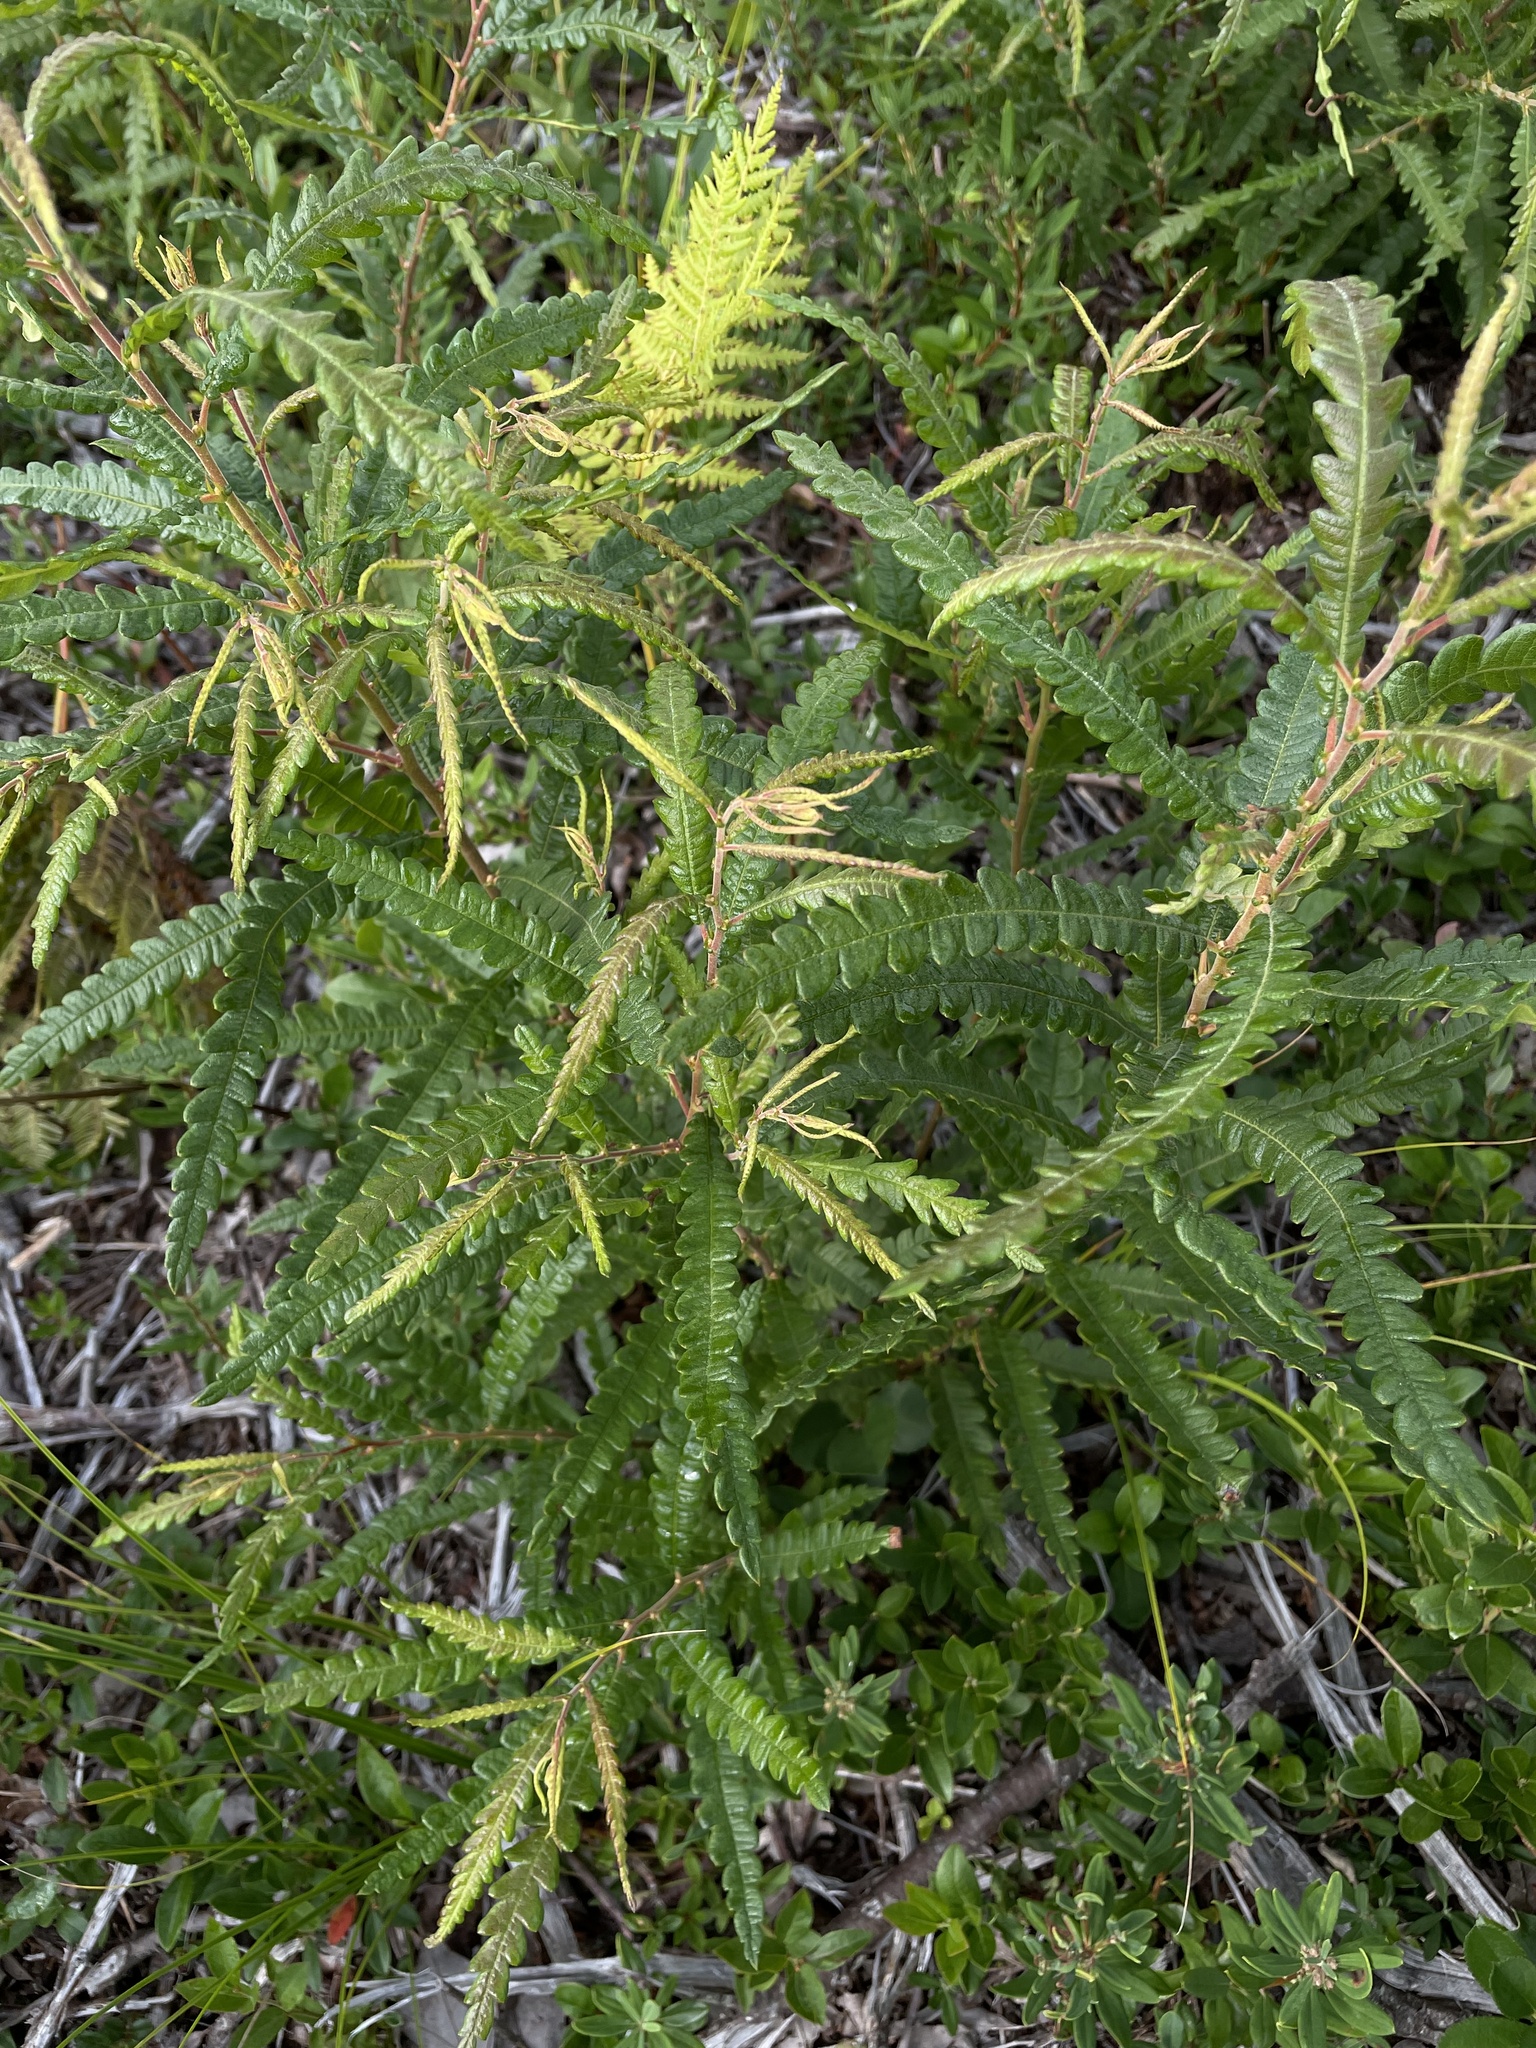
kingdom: Plantae
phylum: Tracheophyta
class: Magnoliopsida
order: Fagales
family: Myricaceae
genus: Comptonia
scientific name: Comptonia peregrina
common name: Sweet-fern
